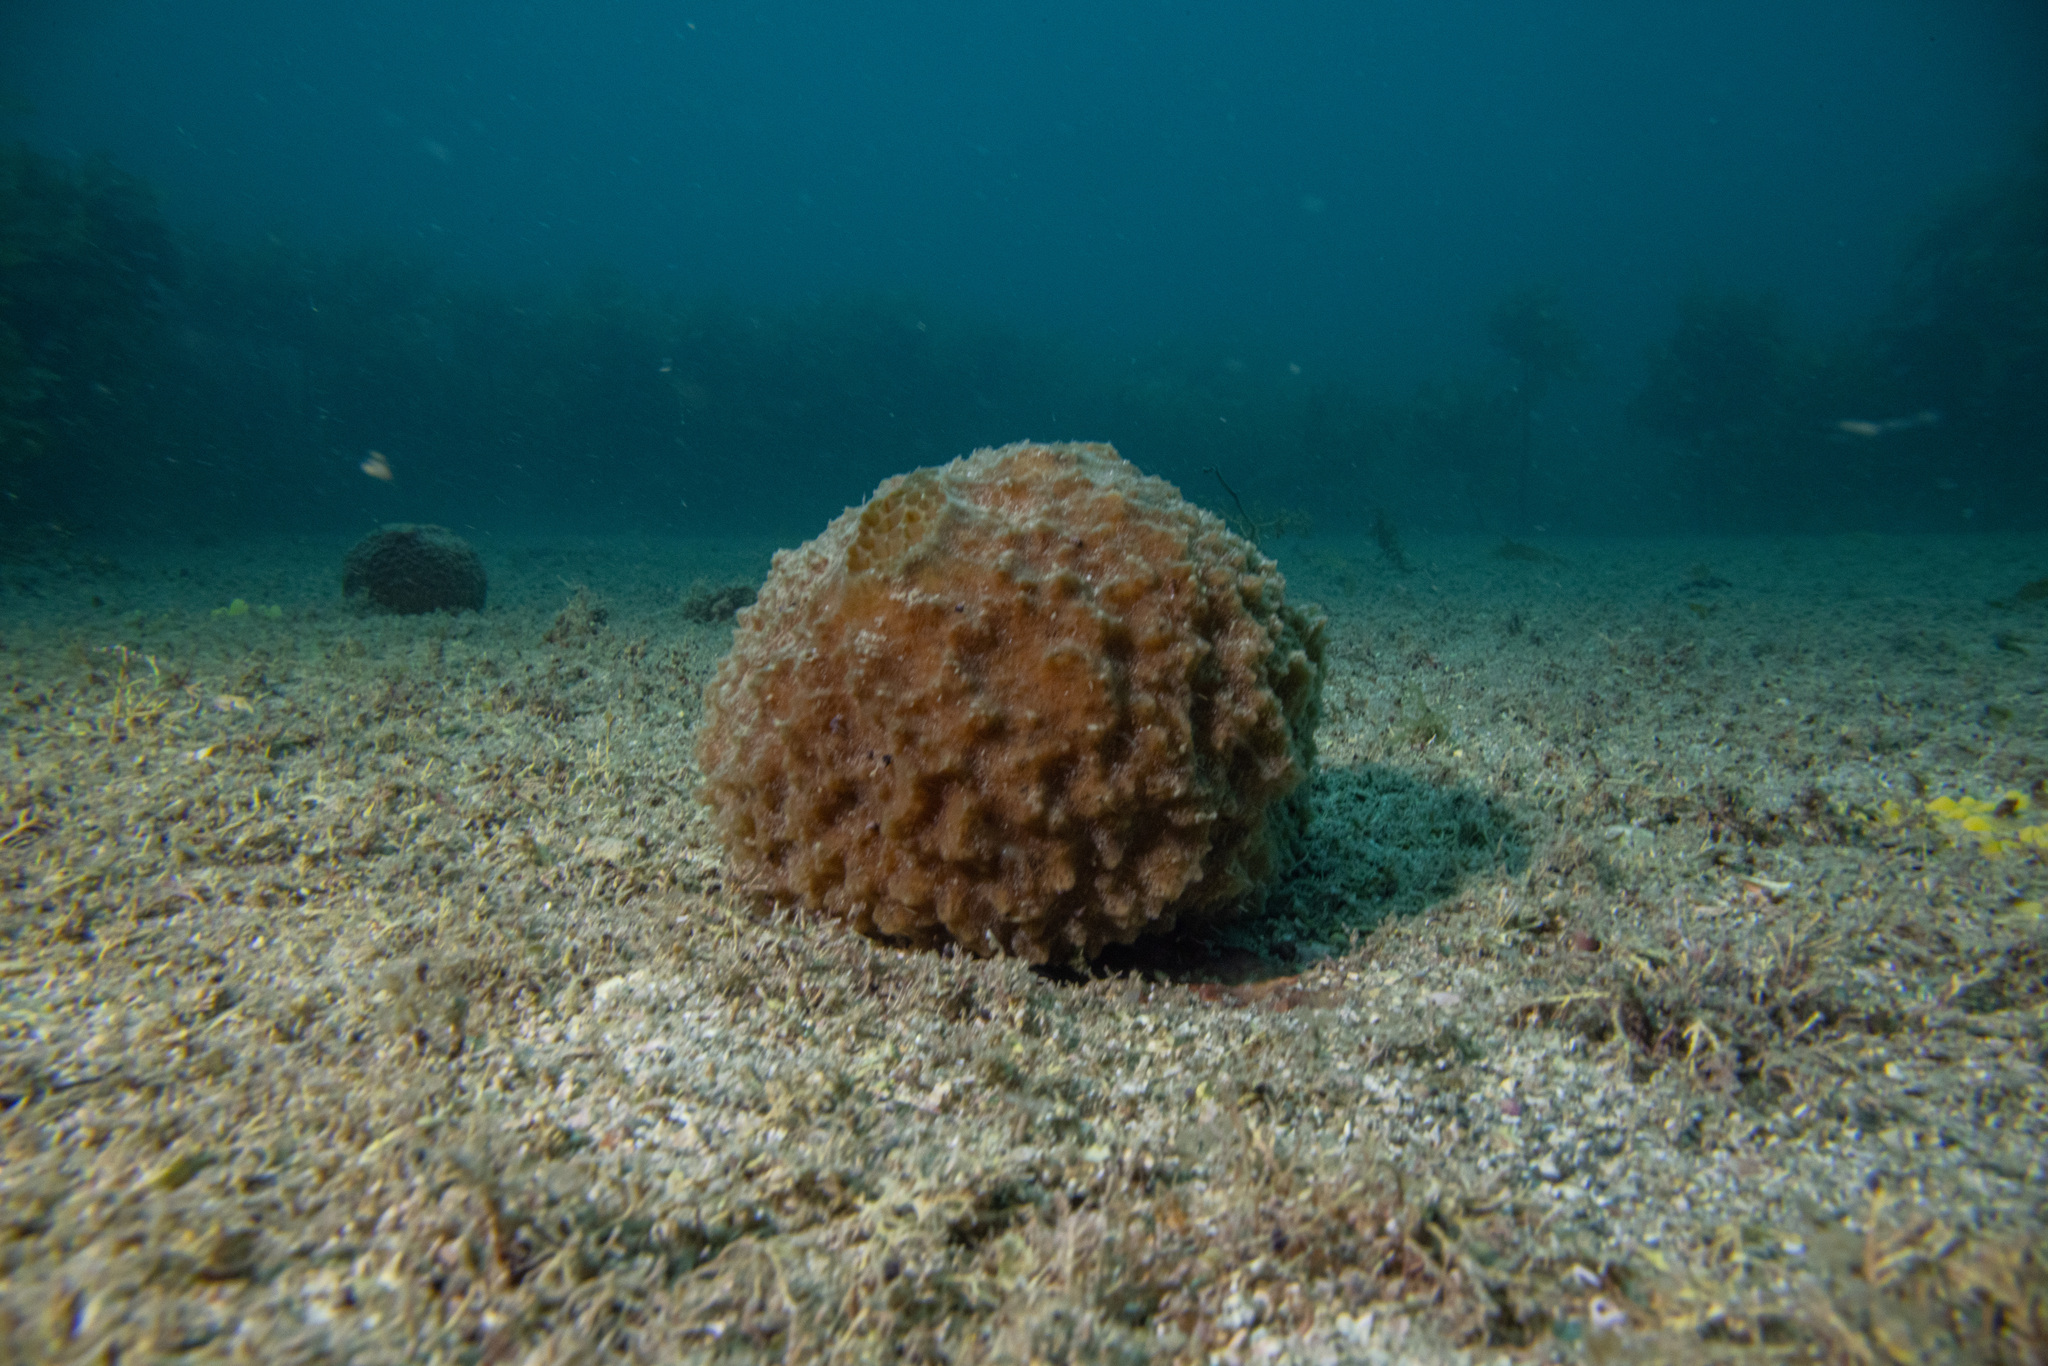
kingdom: Animalia
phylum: Porifera
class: Demospongiae
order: Suberitida
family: Suberitidae
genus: Aaptos
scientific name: Aaptos tenta
